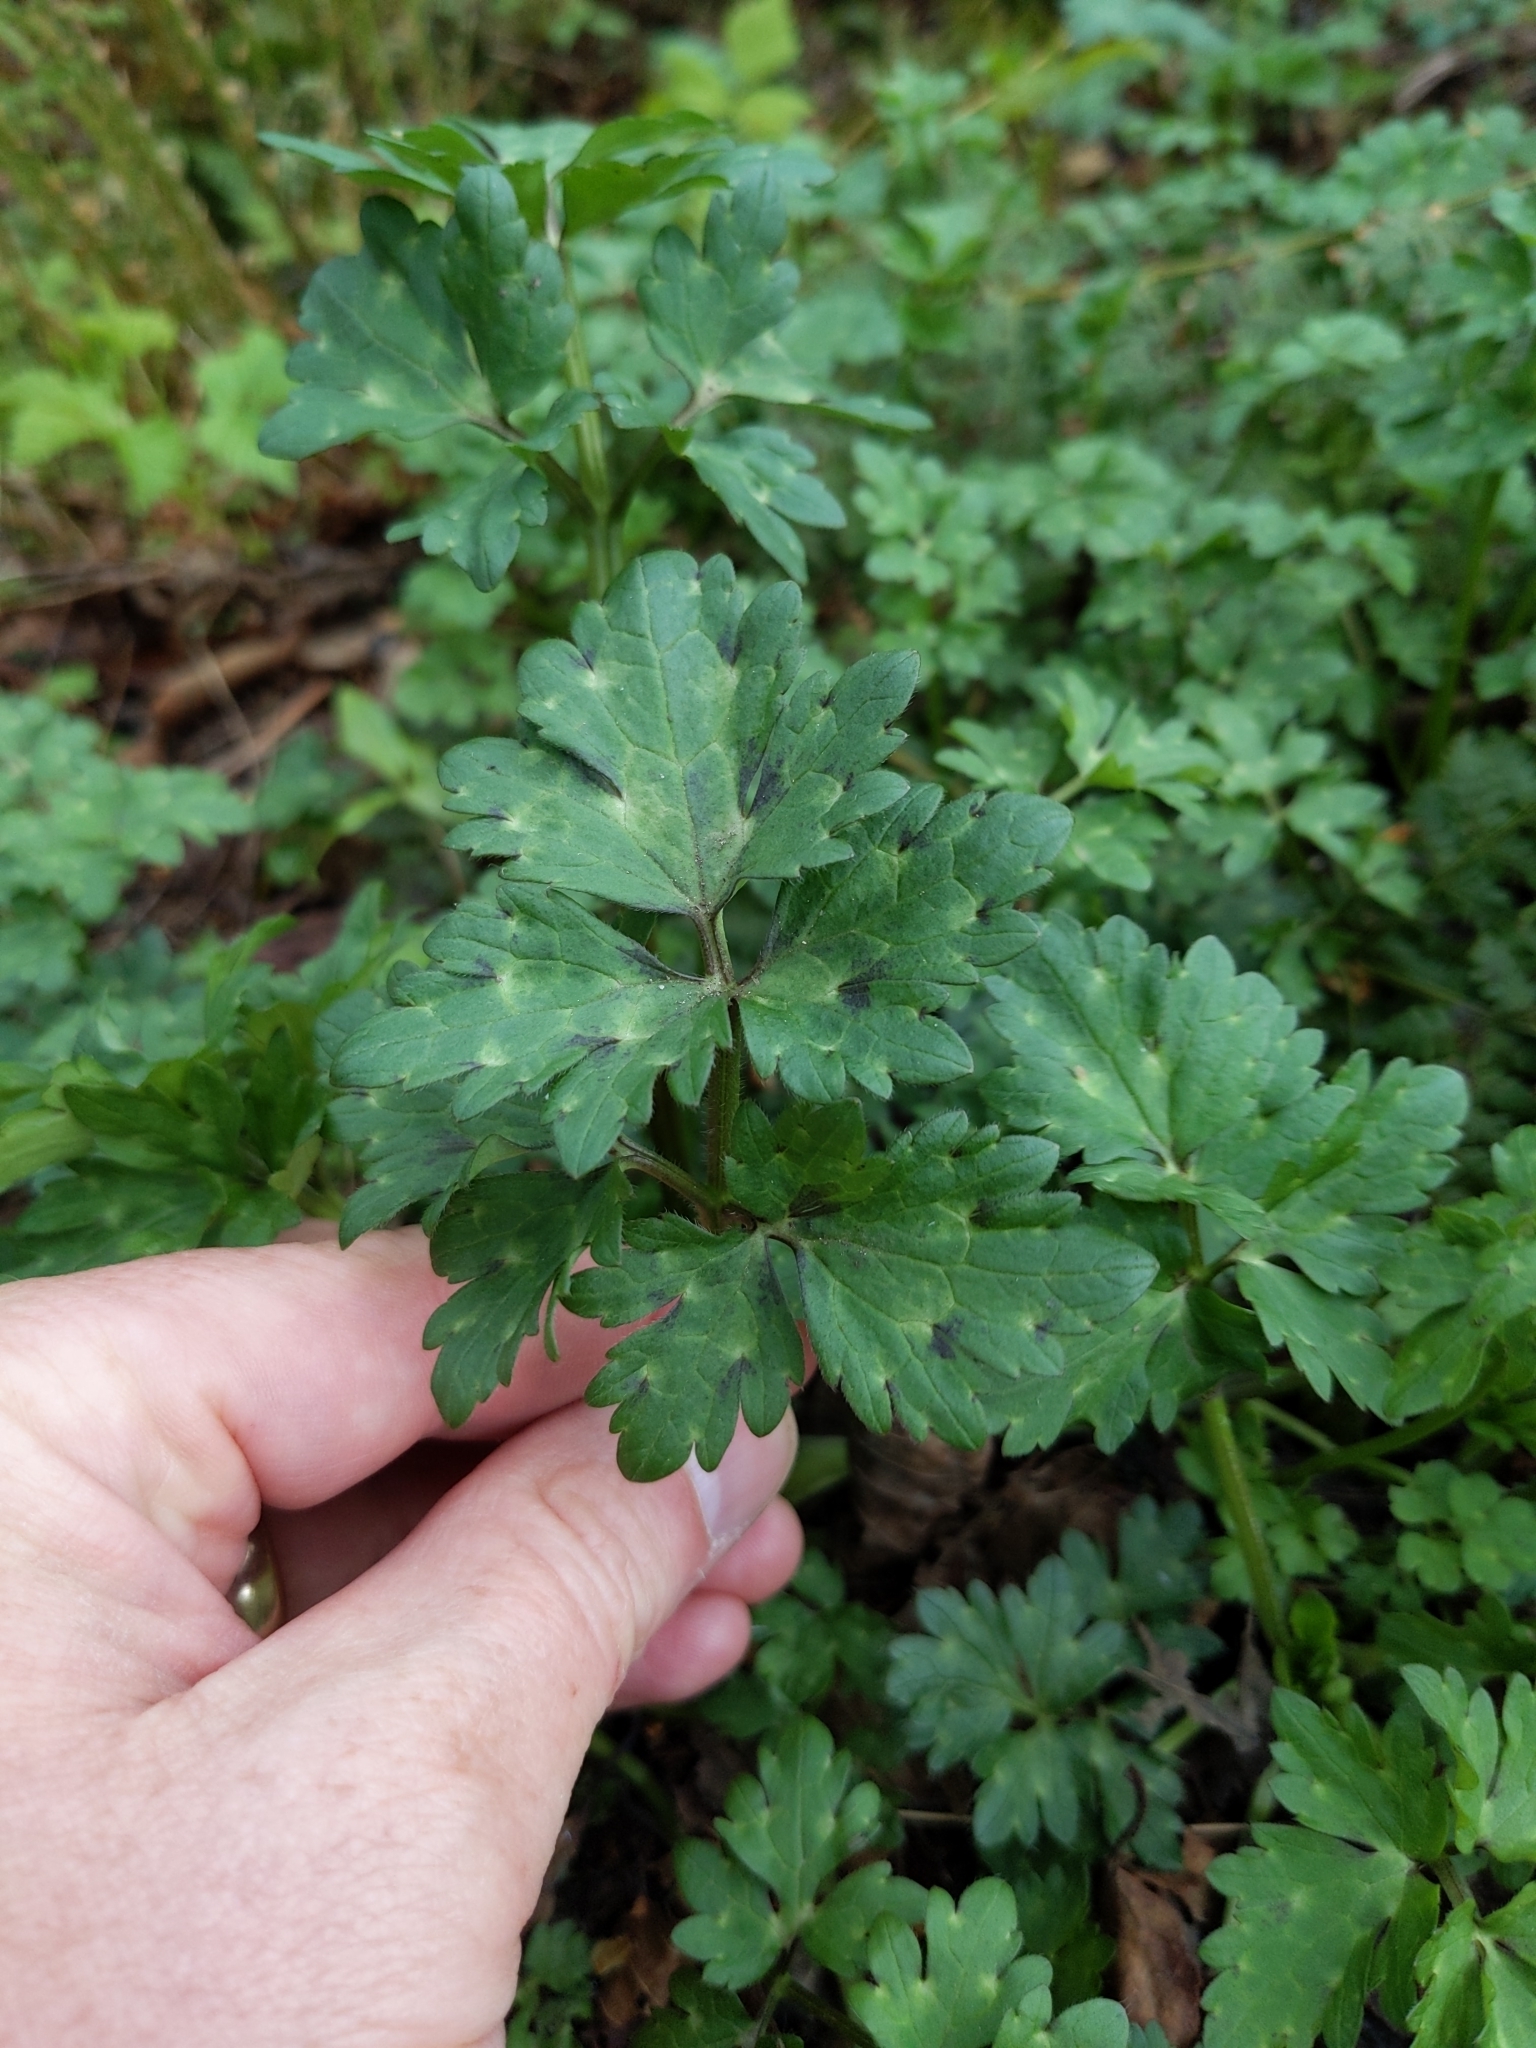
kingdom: Plantae
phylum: Tracheophyta
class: Magnoliopsida
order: Ranunculales
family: Ranunculaceae
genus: Ranunculus
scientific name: Ranunculus repens
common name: Creeping buttercup
